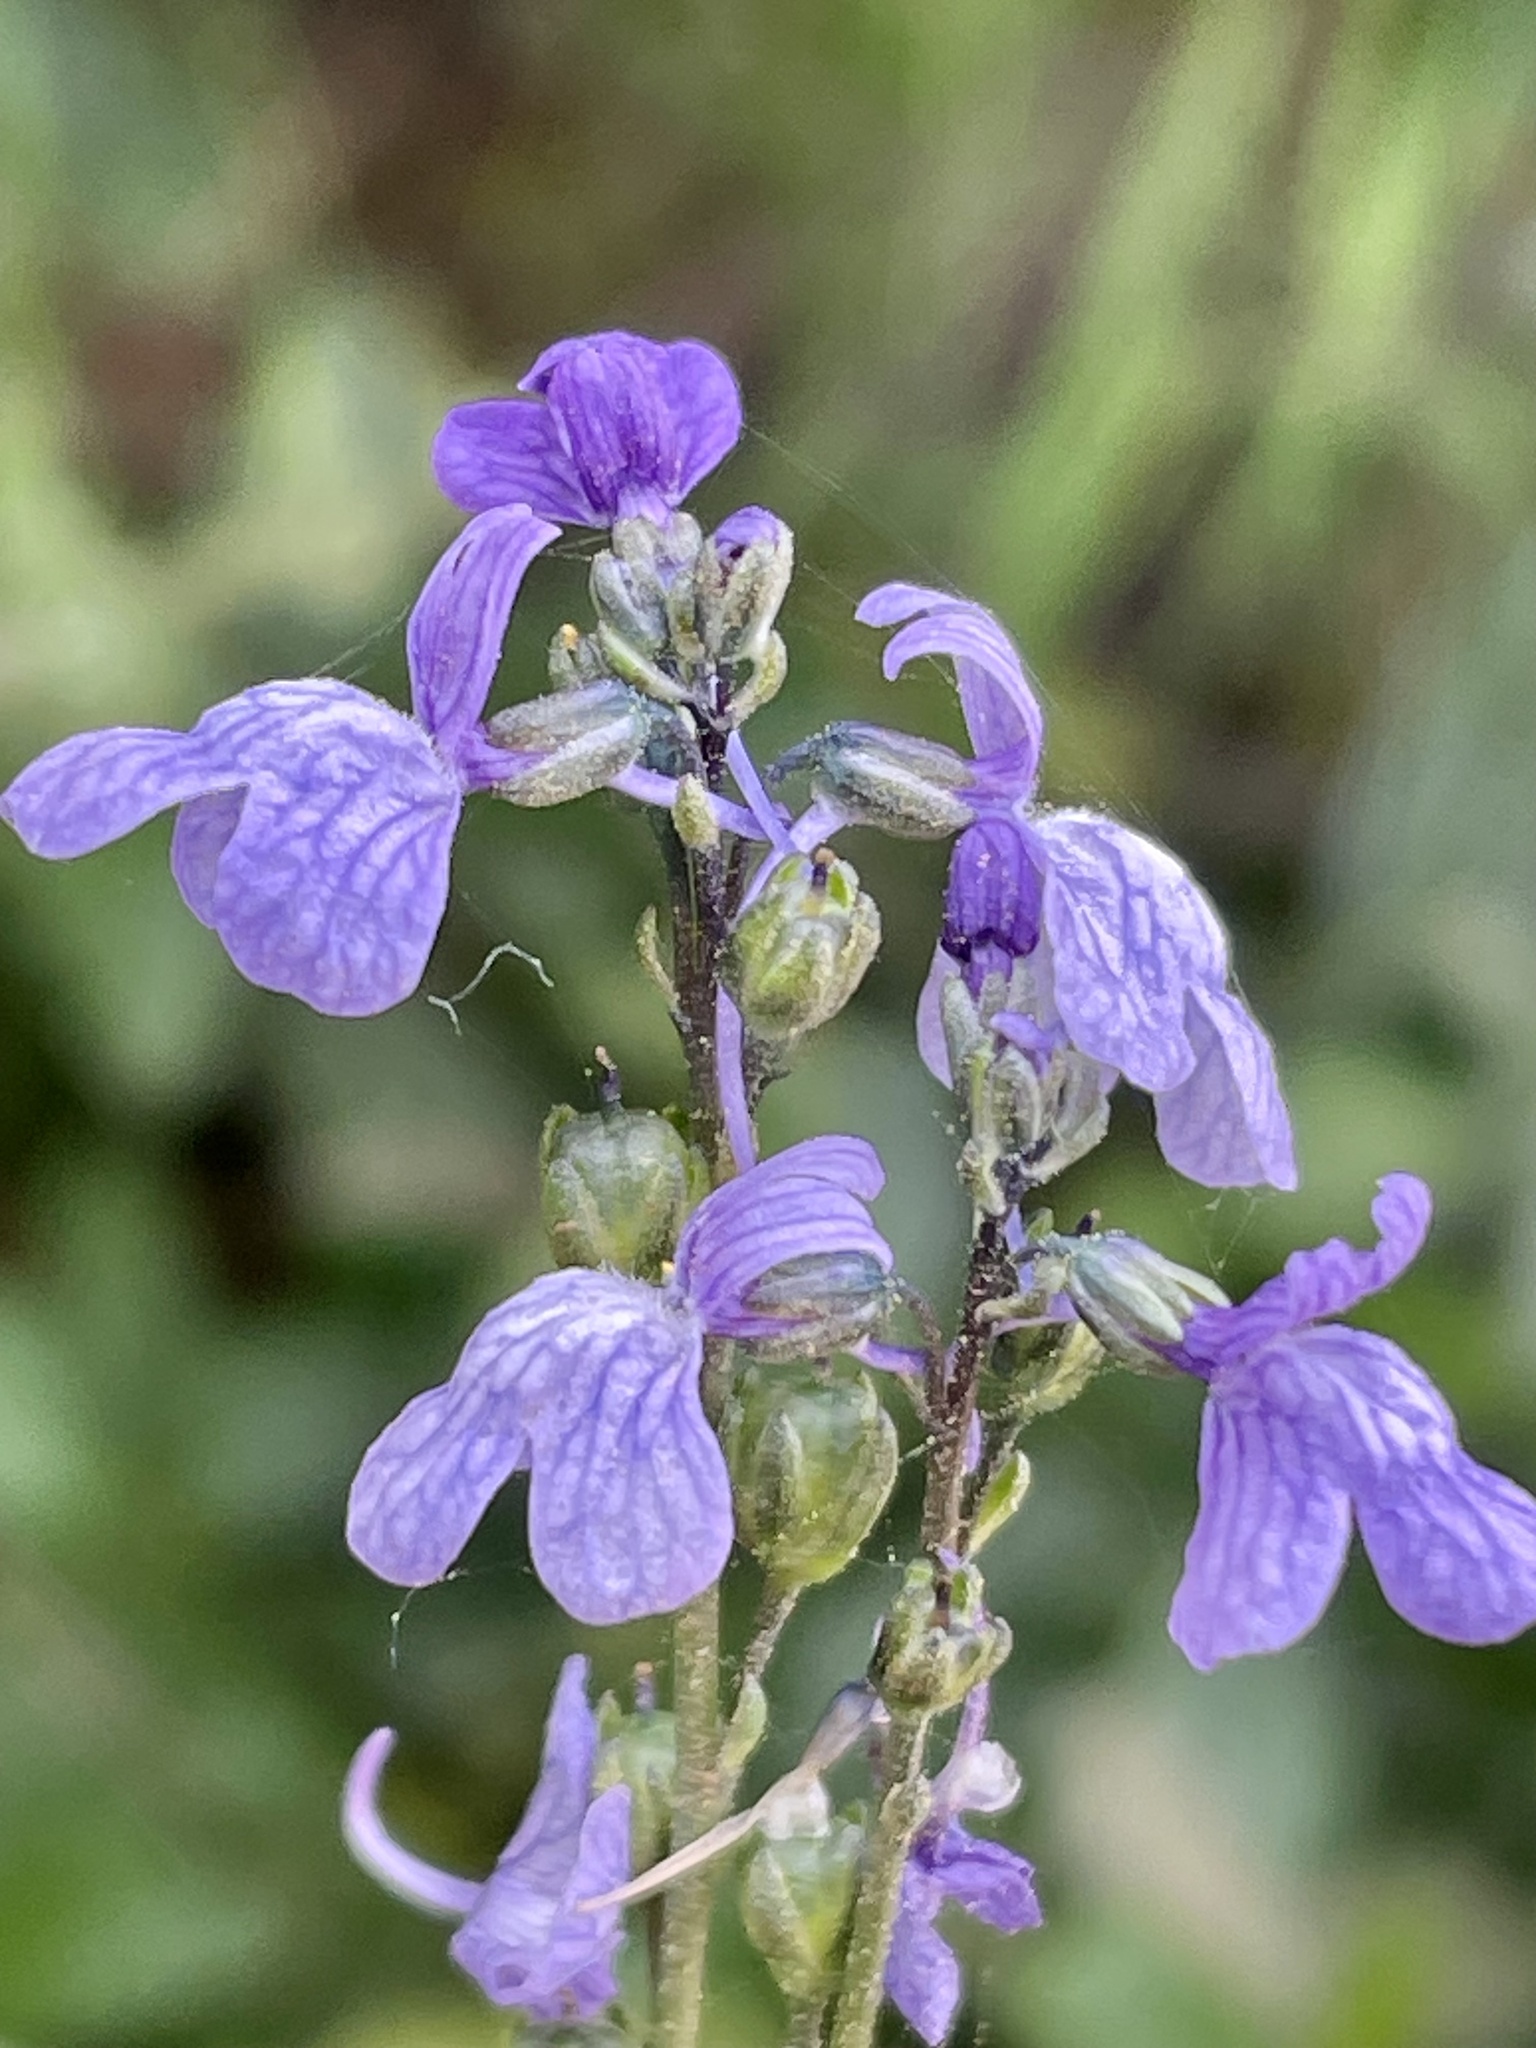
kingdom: Plantae
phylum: Tracheophyta
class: Magnoliopsida
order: Lamiales
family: Plantaginaceae
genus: Nuttallanthus
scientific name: Nuttallanthus texanus
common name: Texas toadflax
